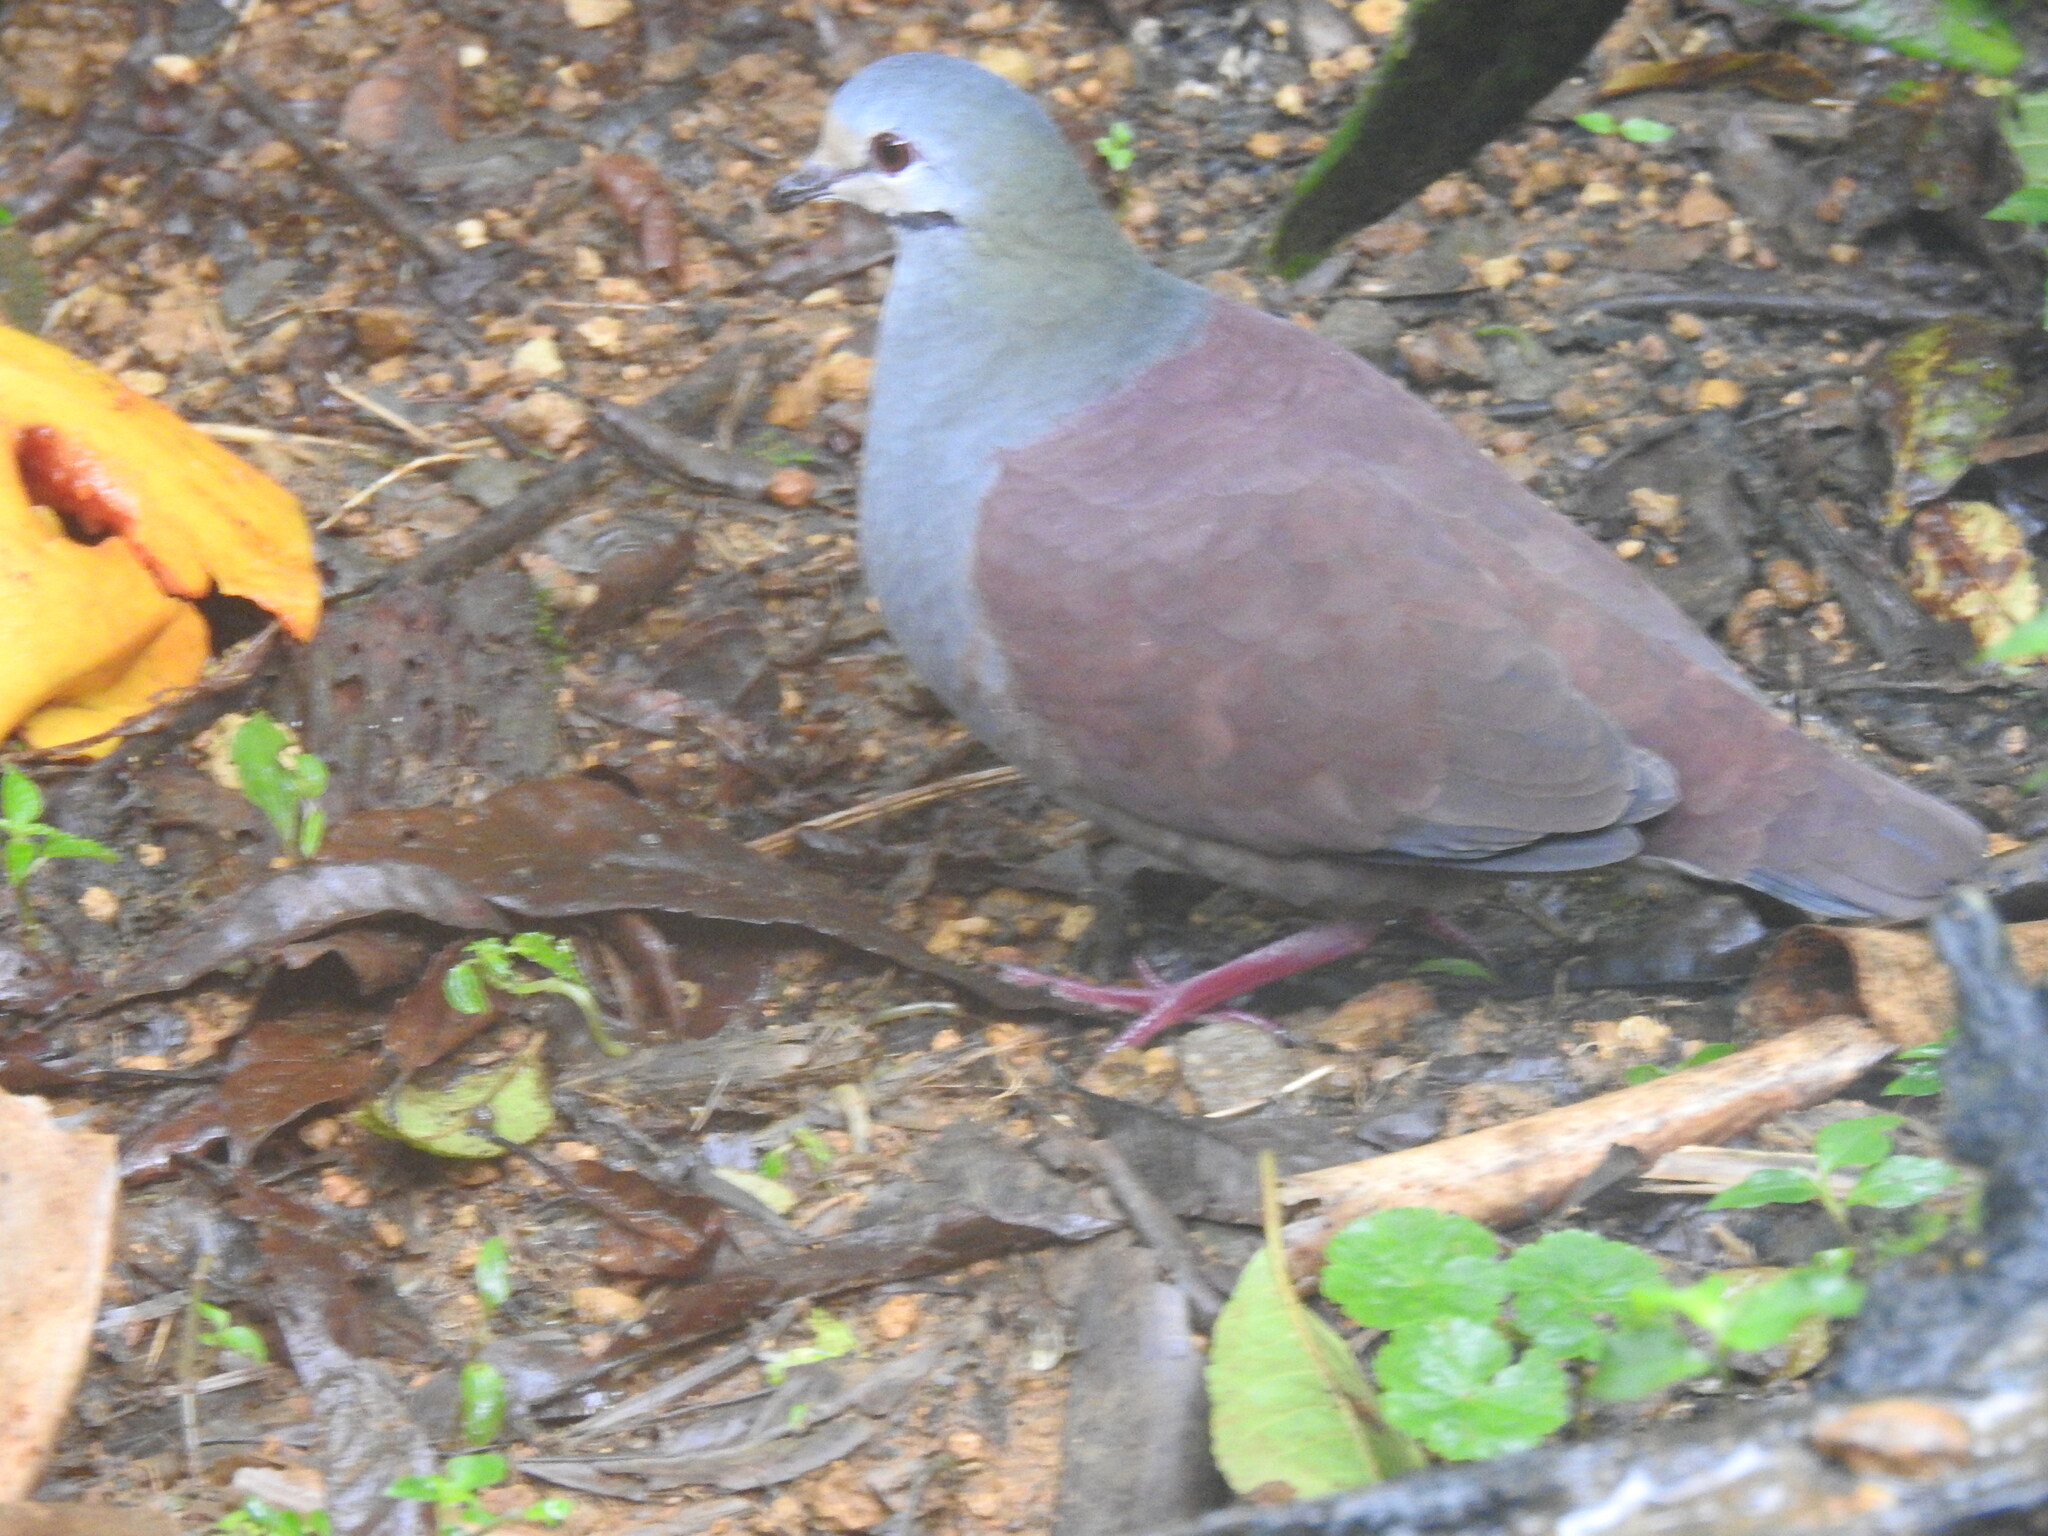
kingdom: Animalia
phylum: Chordata
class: Aves
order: Columbiformes
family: Columbidae
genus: Zentrygon
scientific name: Zentrygon costaricensis
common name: Buff-fronted quail-dove
